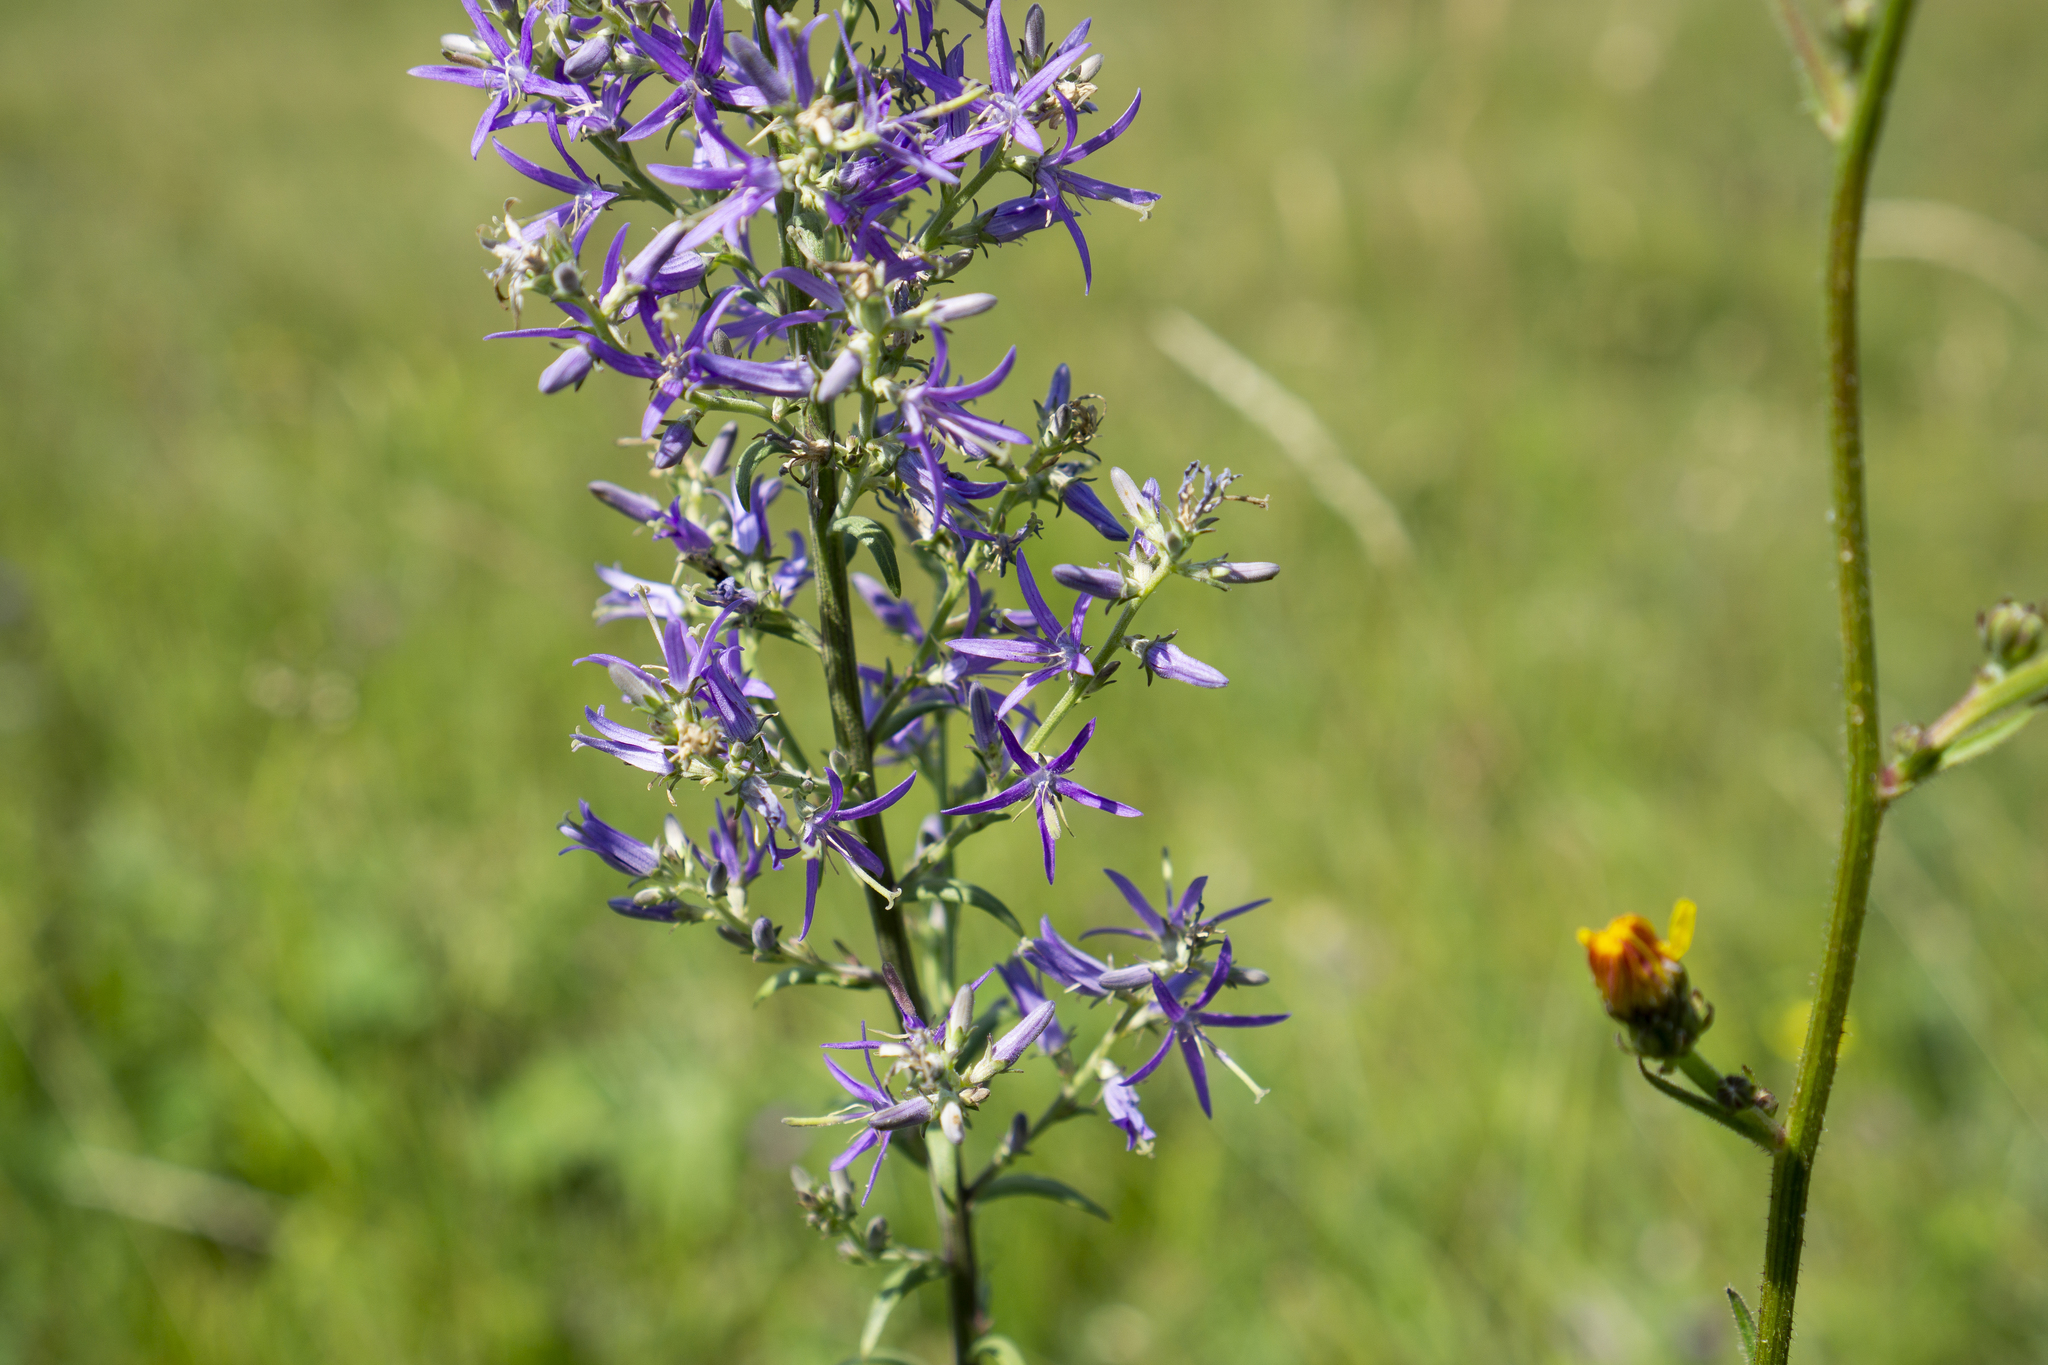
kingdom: Plantae
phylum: Tracheophyta
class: Magnoliopsida
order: Asterales
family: Campanulaceae
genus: Asyneuma
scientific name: Asyneuma canescens
